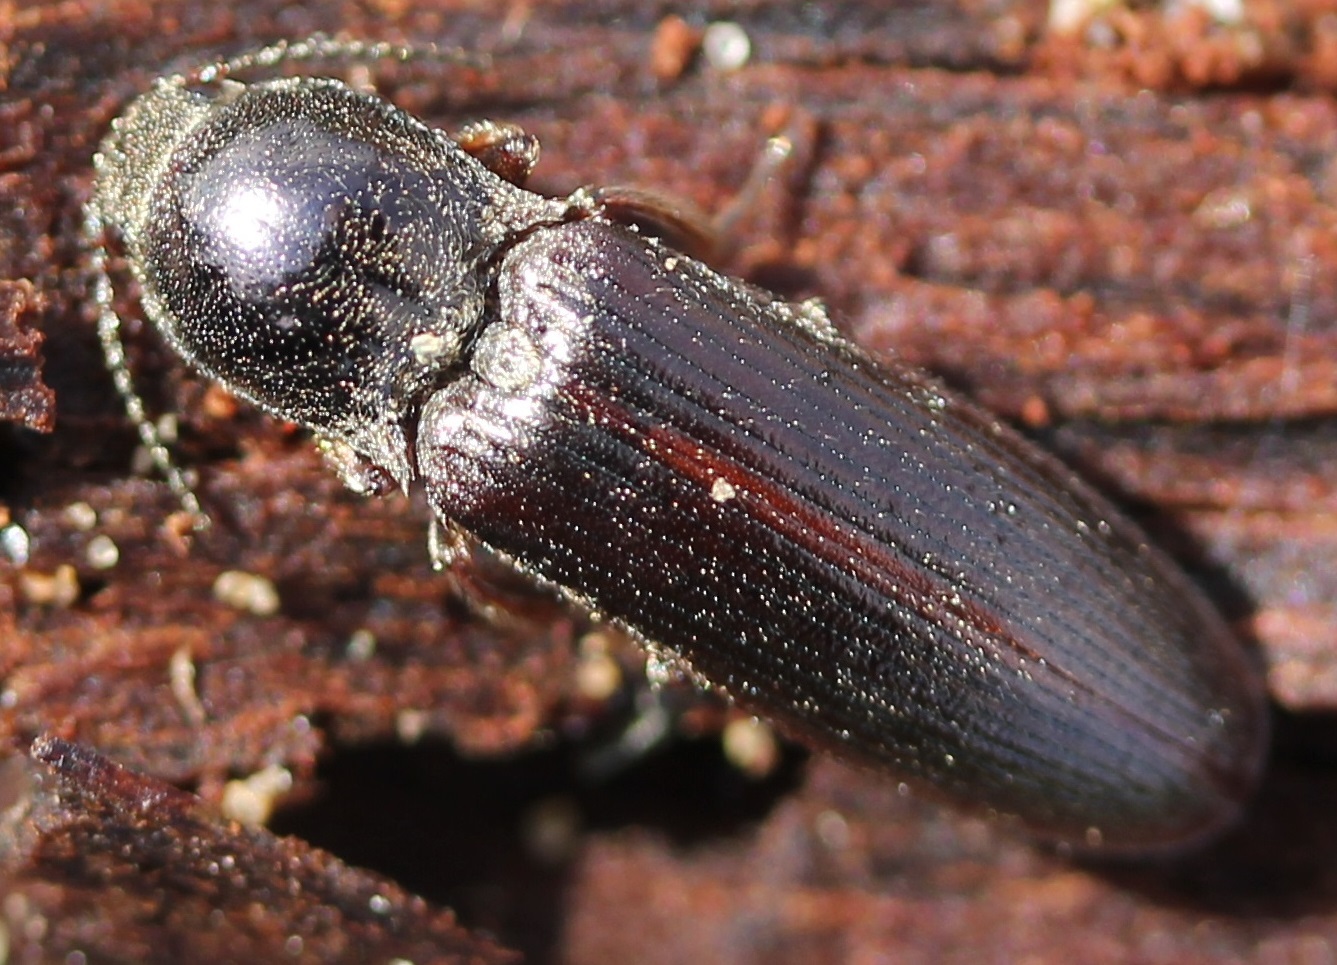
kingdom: Animalia
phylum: Arthropoda
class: Insecta
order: Coleoptera
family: Elateridae
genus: Sylvanelater
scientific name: Sylvanelater cylindriformis
